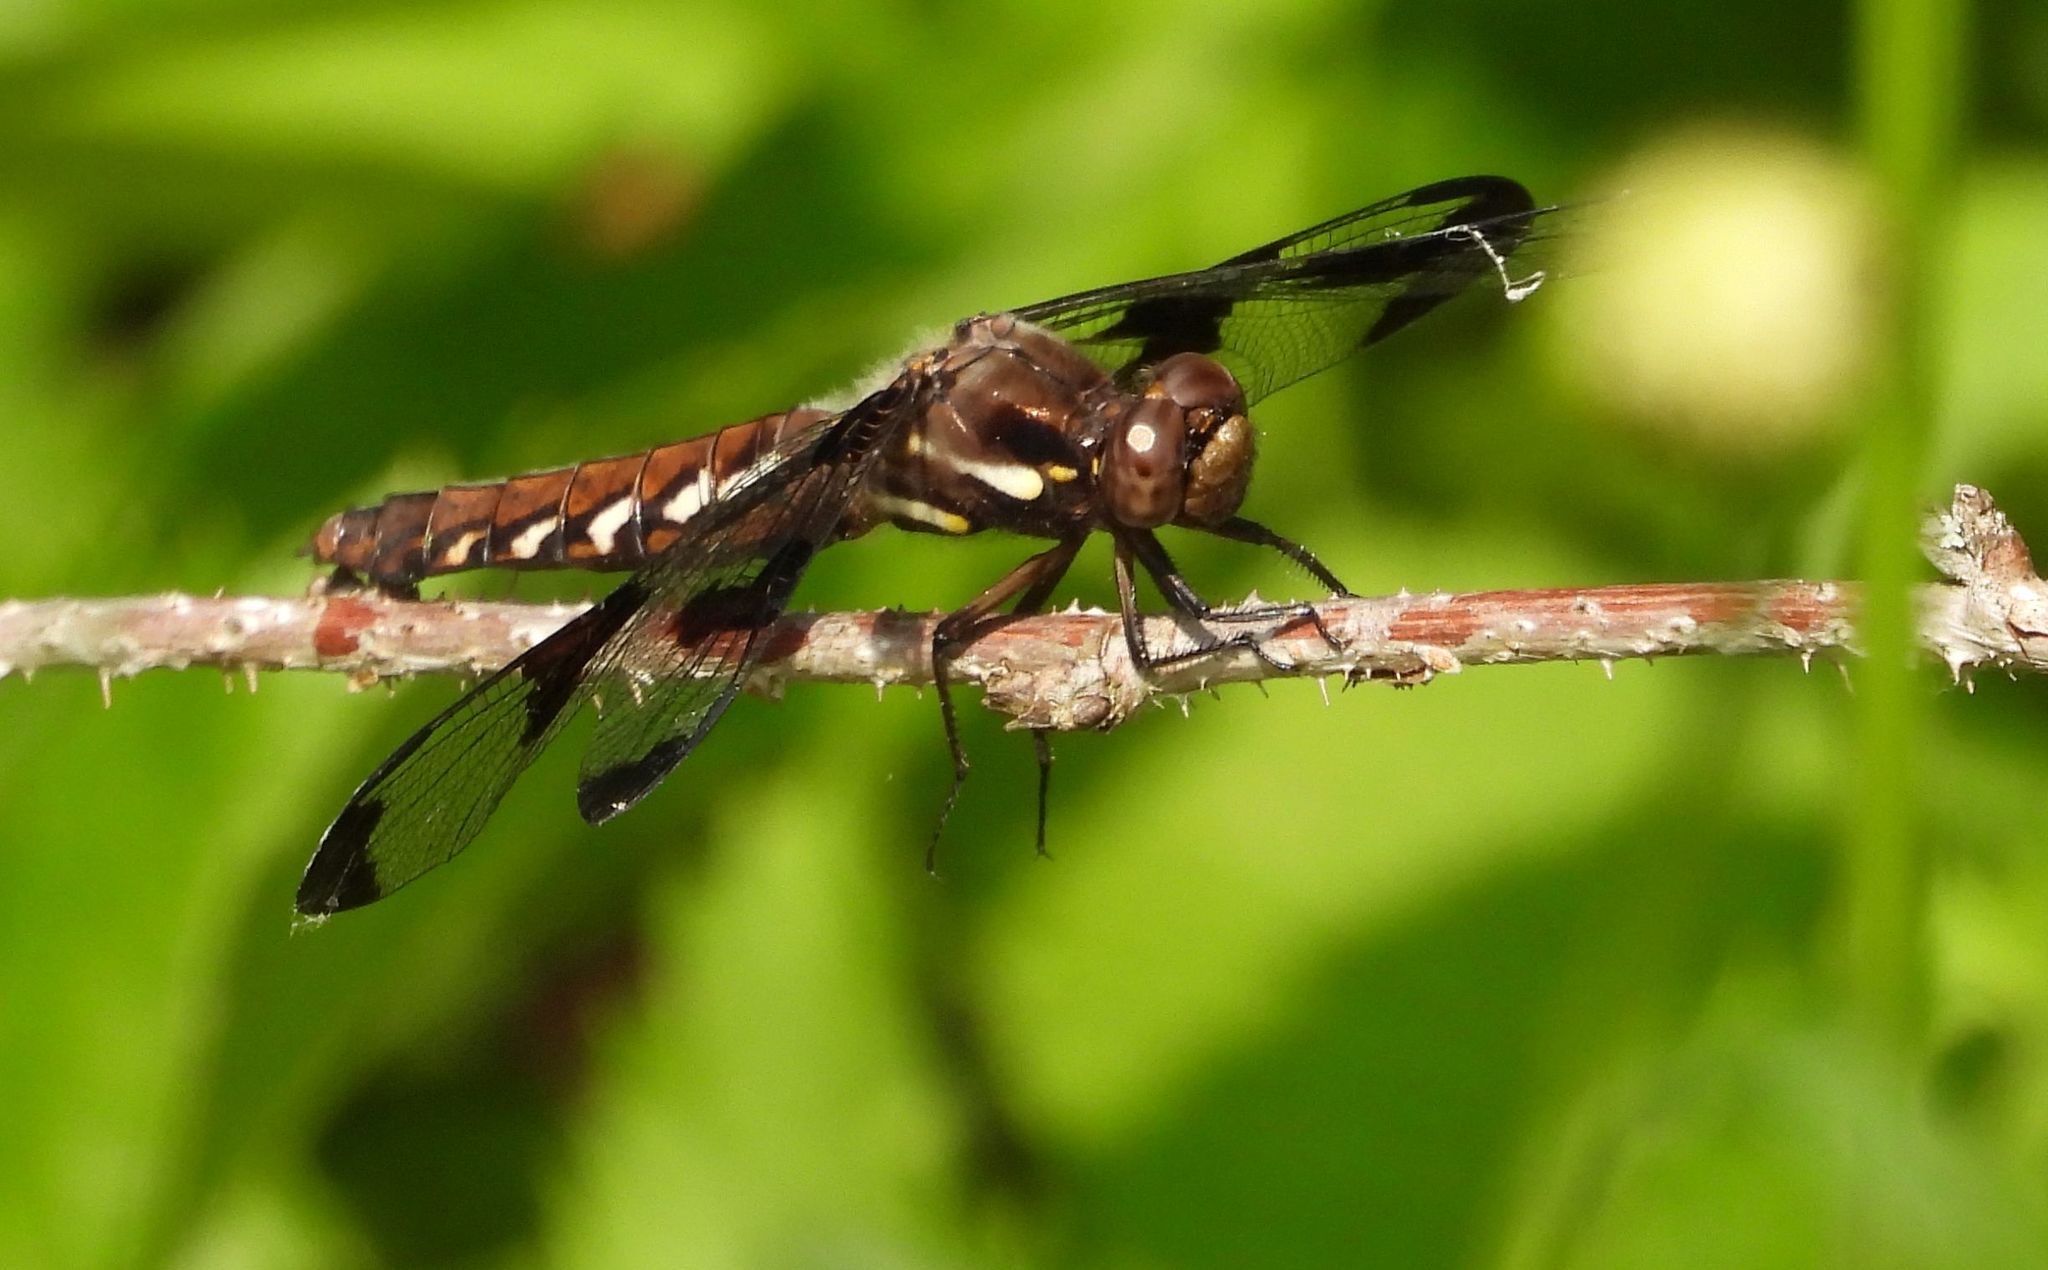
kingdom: Animalia
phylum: Arthropoda
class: Insecta
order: Odonata
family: Libellulidae
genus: Plathemis
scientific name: Plathemis lydia
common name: Common whitetail
